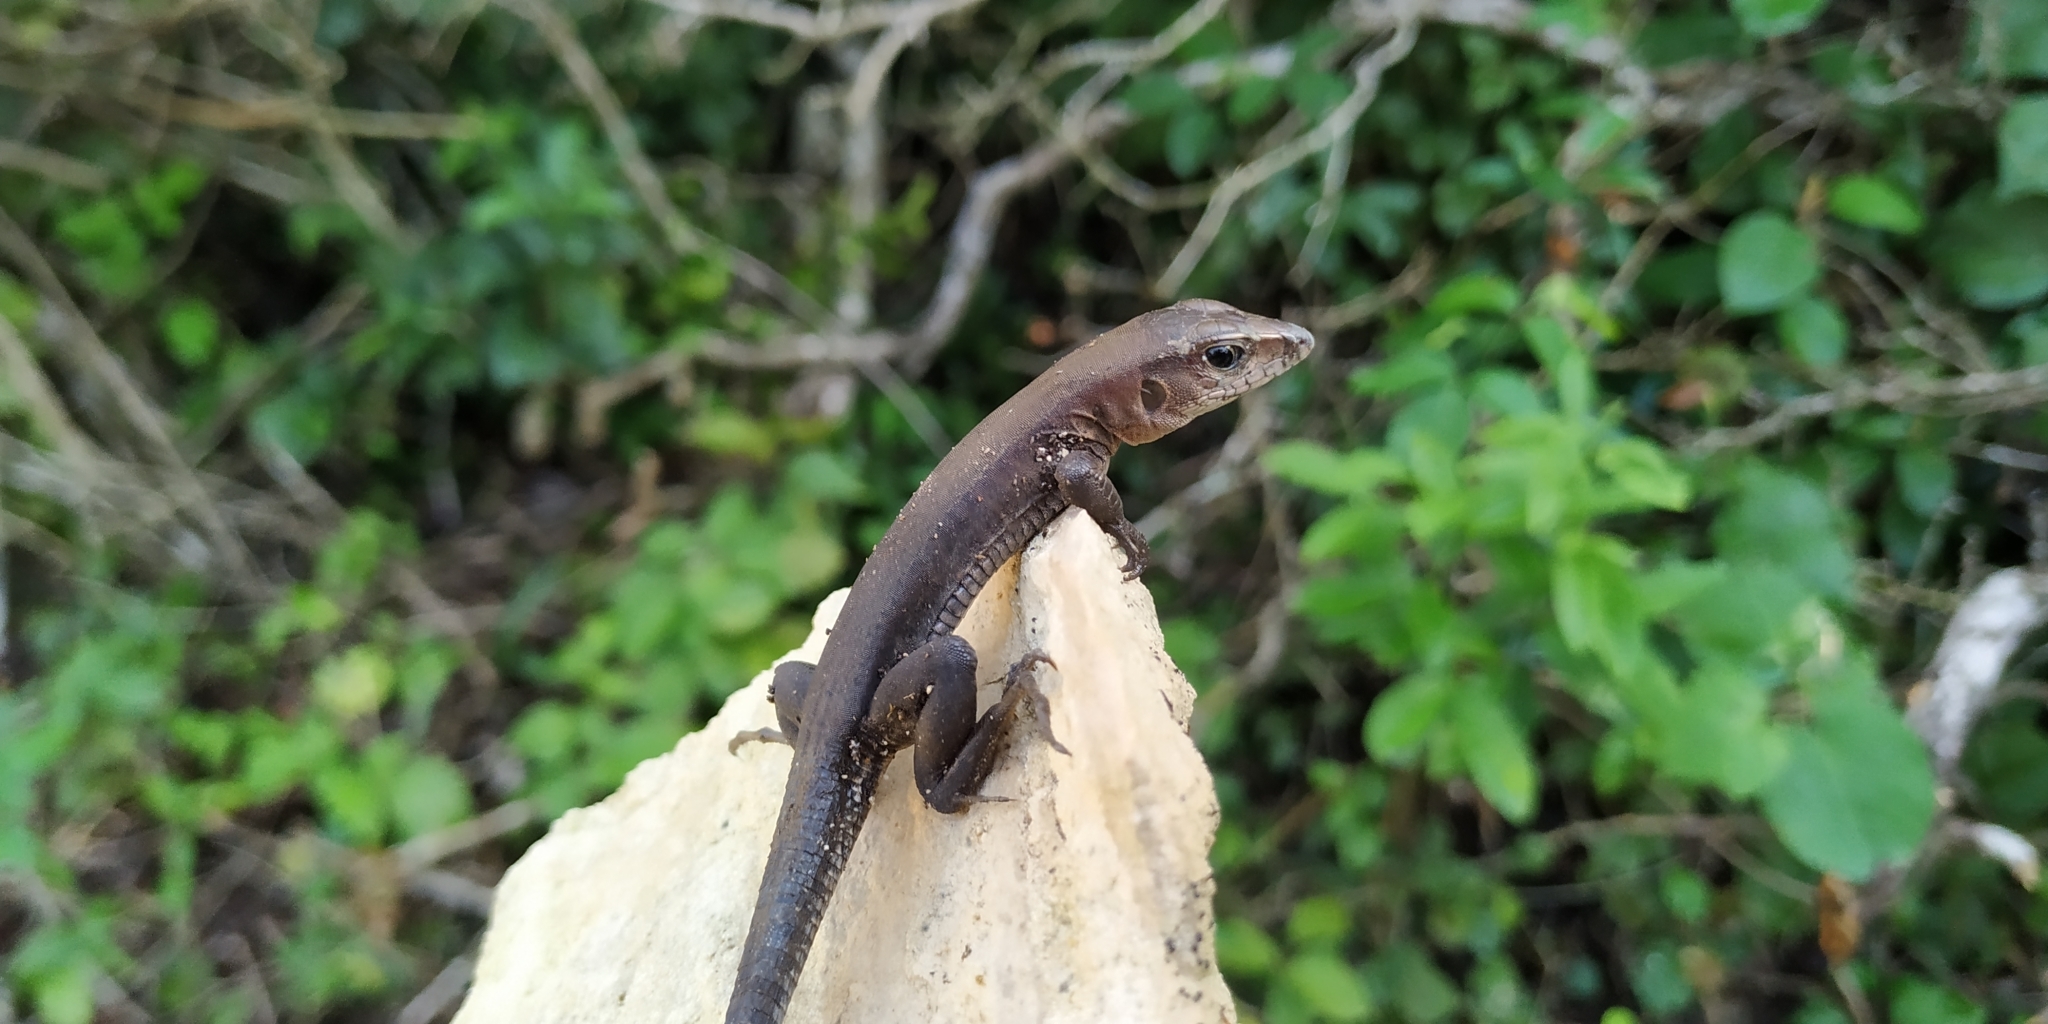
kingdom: Animalia
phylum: Chordata
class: Squamata
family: Teiidae
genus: Holcosus
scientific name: Holcosus undulatus
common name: Rainbow ameiva
